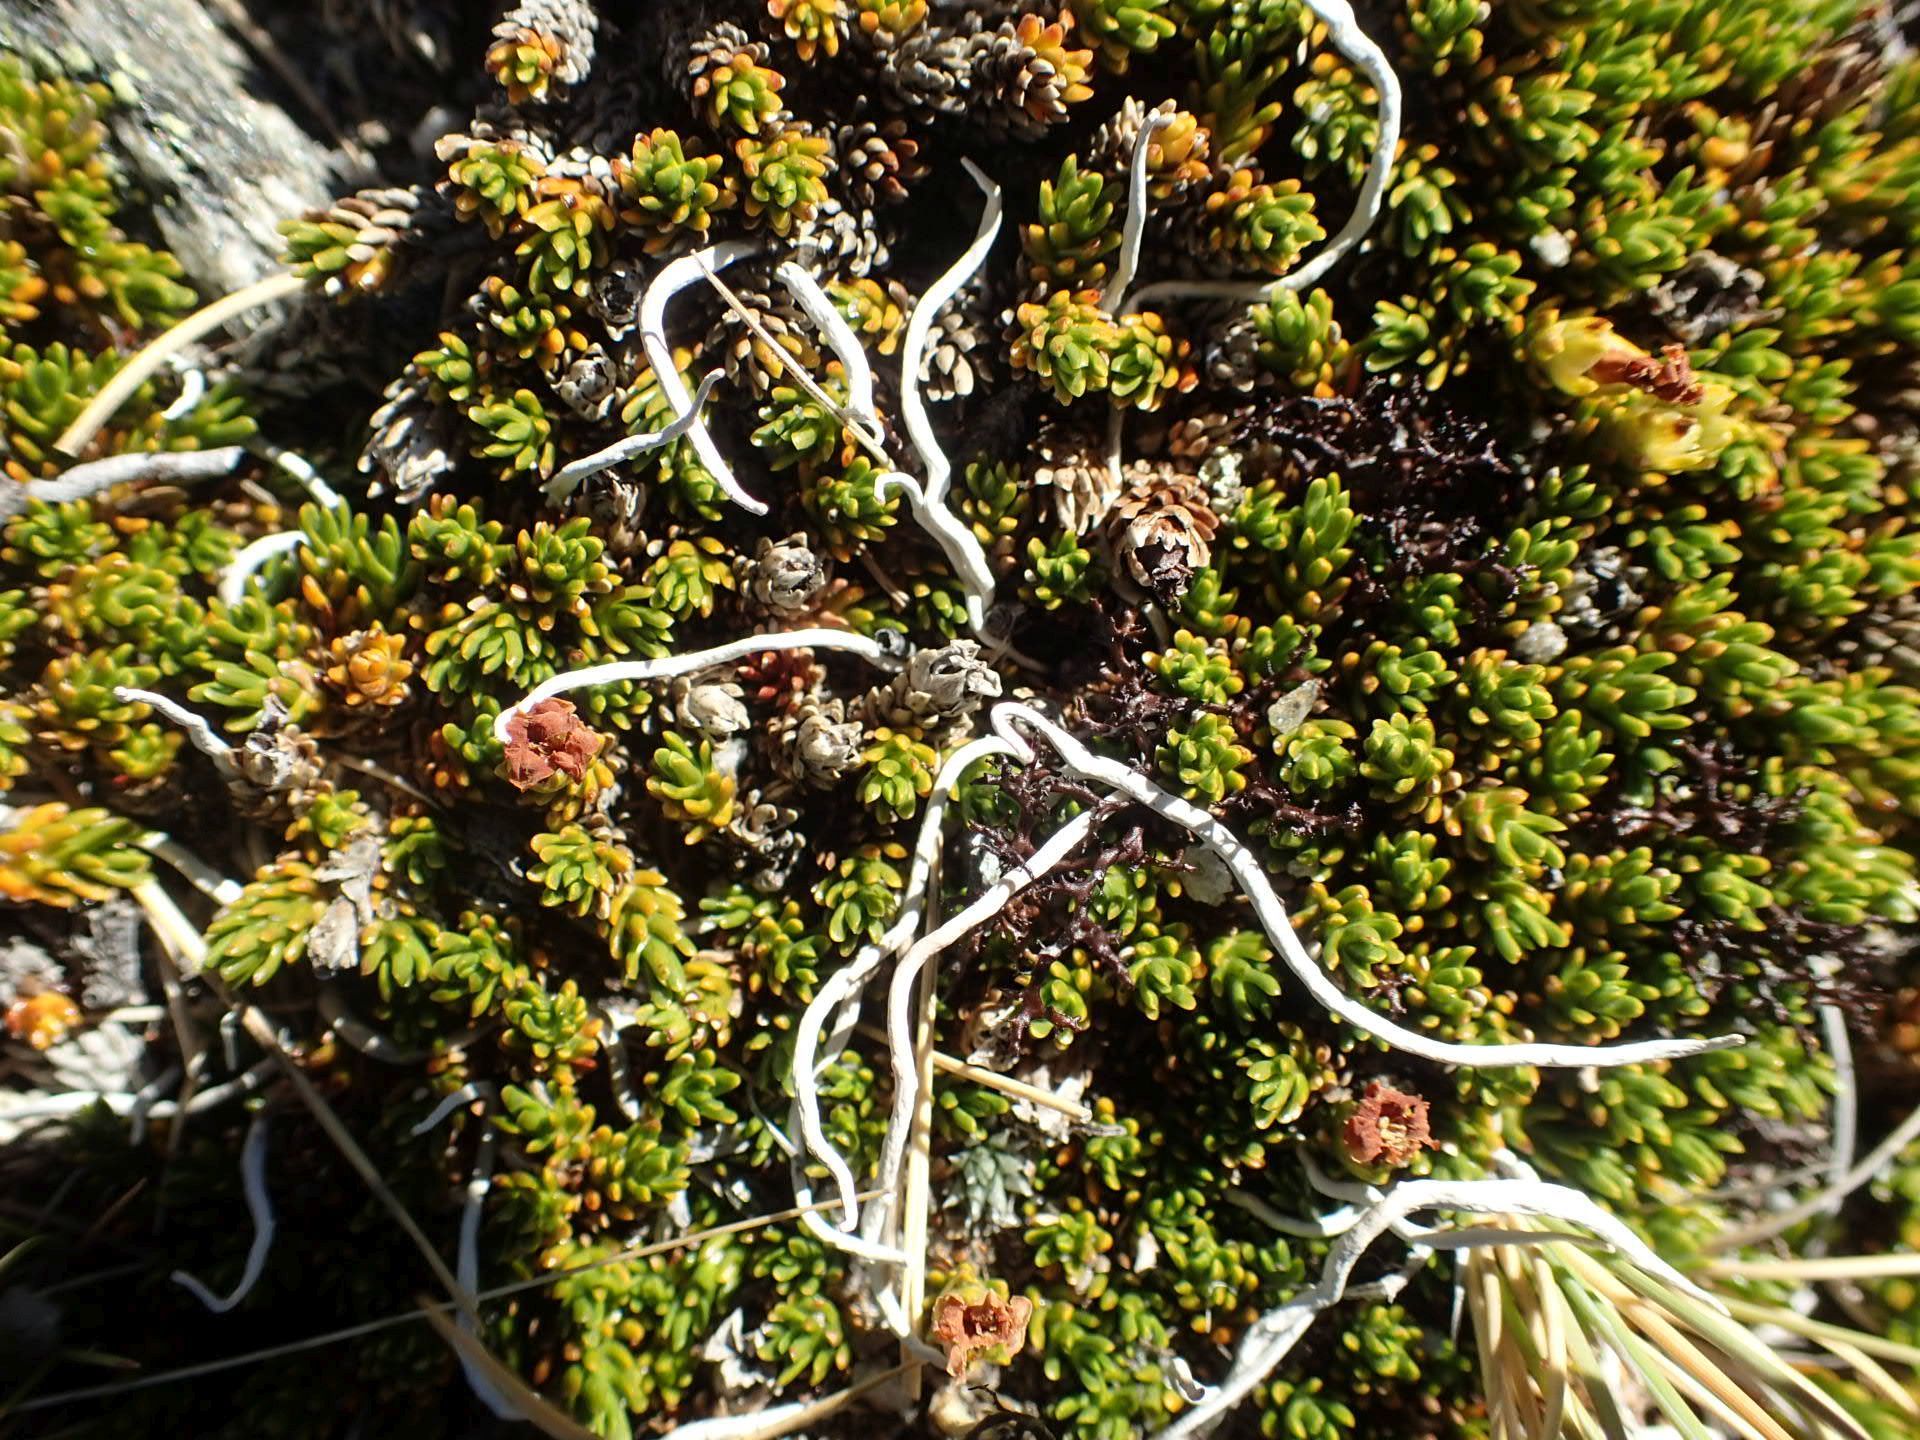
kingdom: Fungi
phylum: Ascomycota
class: Lecanoromycetes
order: Pertusariales
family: Icmadophilaceae
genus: Thamnolia
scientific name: Thamnolia vermicularis
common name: Whiteworm lichen
